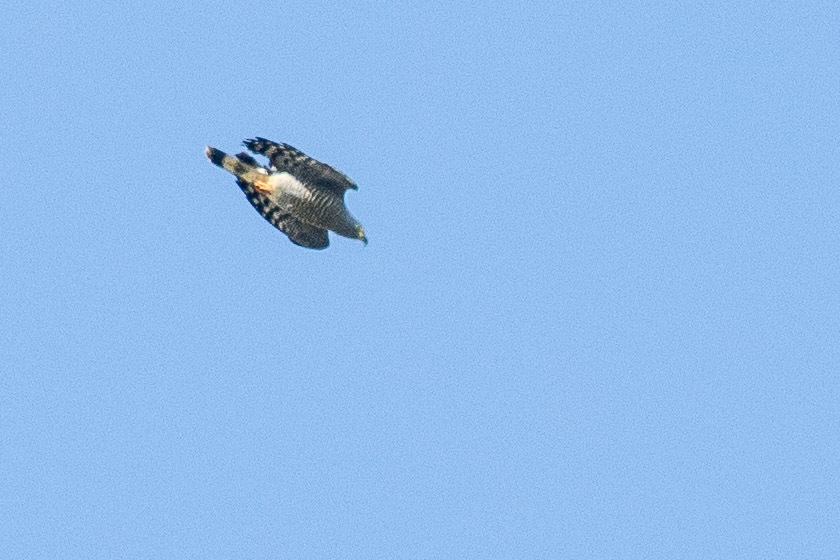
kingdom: Animalia
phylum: Chordata
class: Aves
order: Accipitriformes
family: Accipitridae
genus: Chondrohierax
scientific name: Chondrohierax uncinatus
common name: Hook-billed kite
